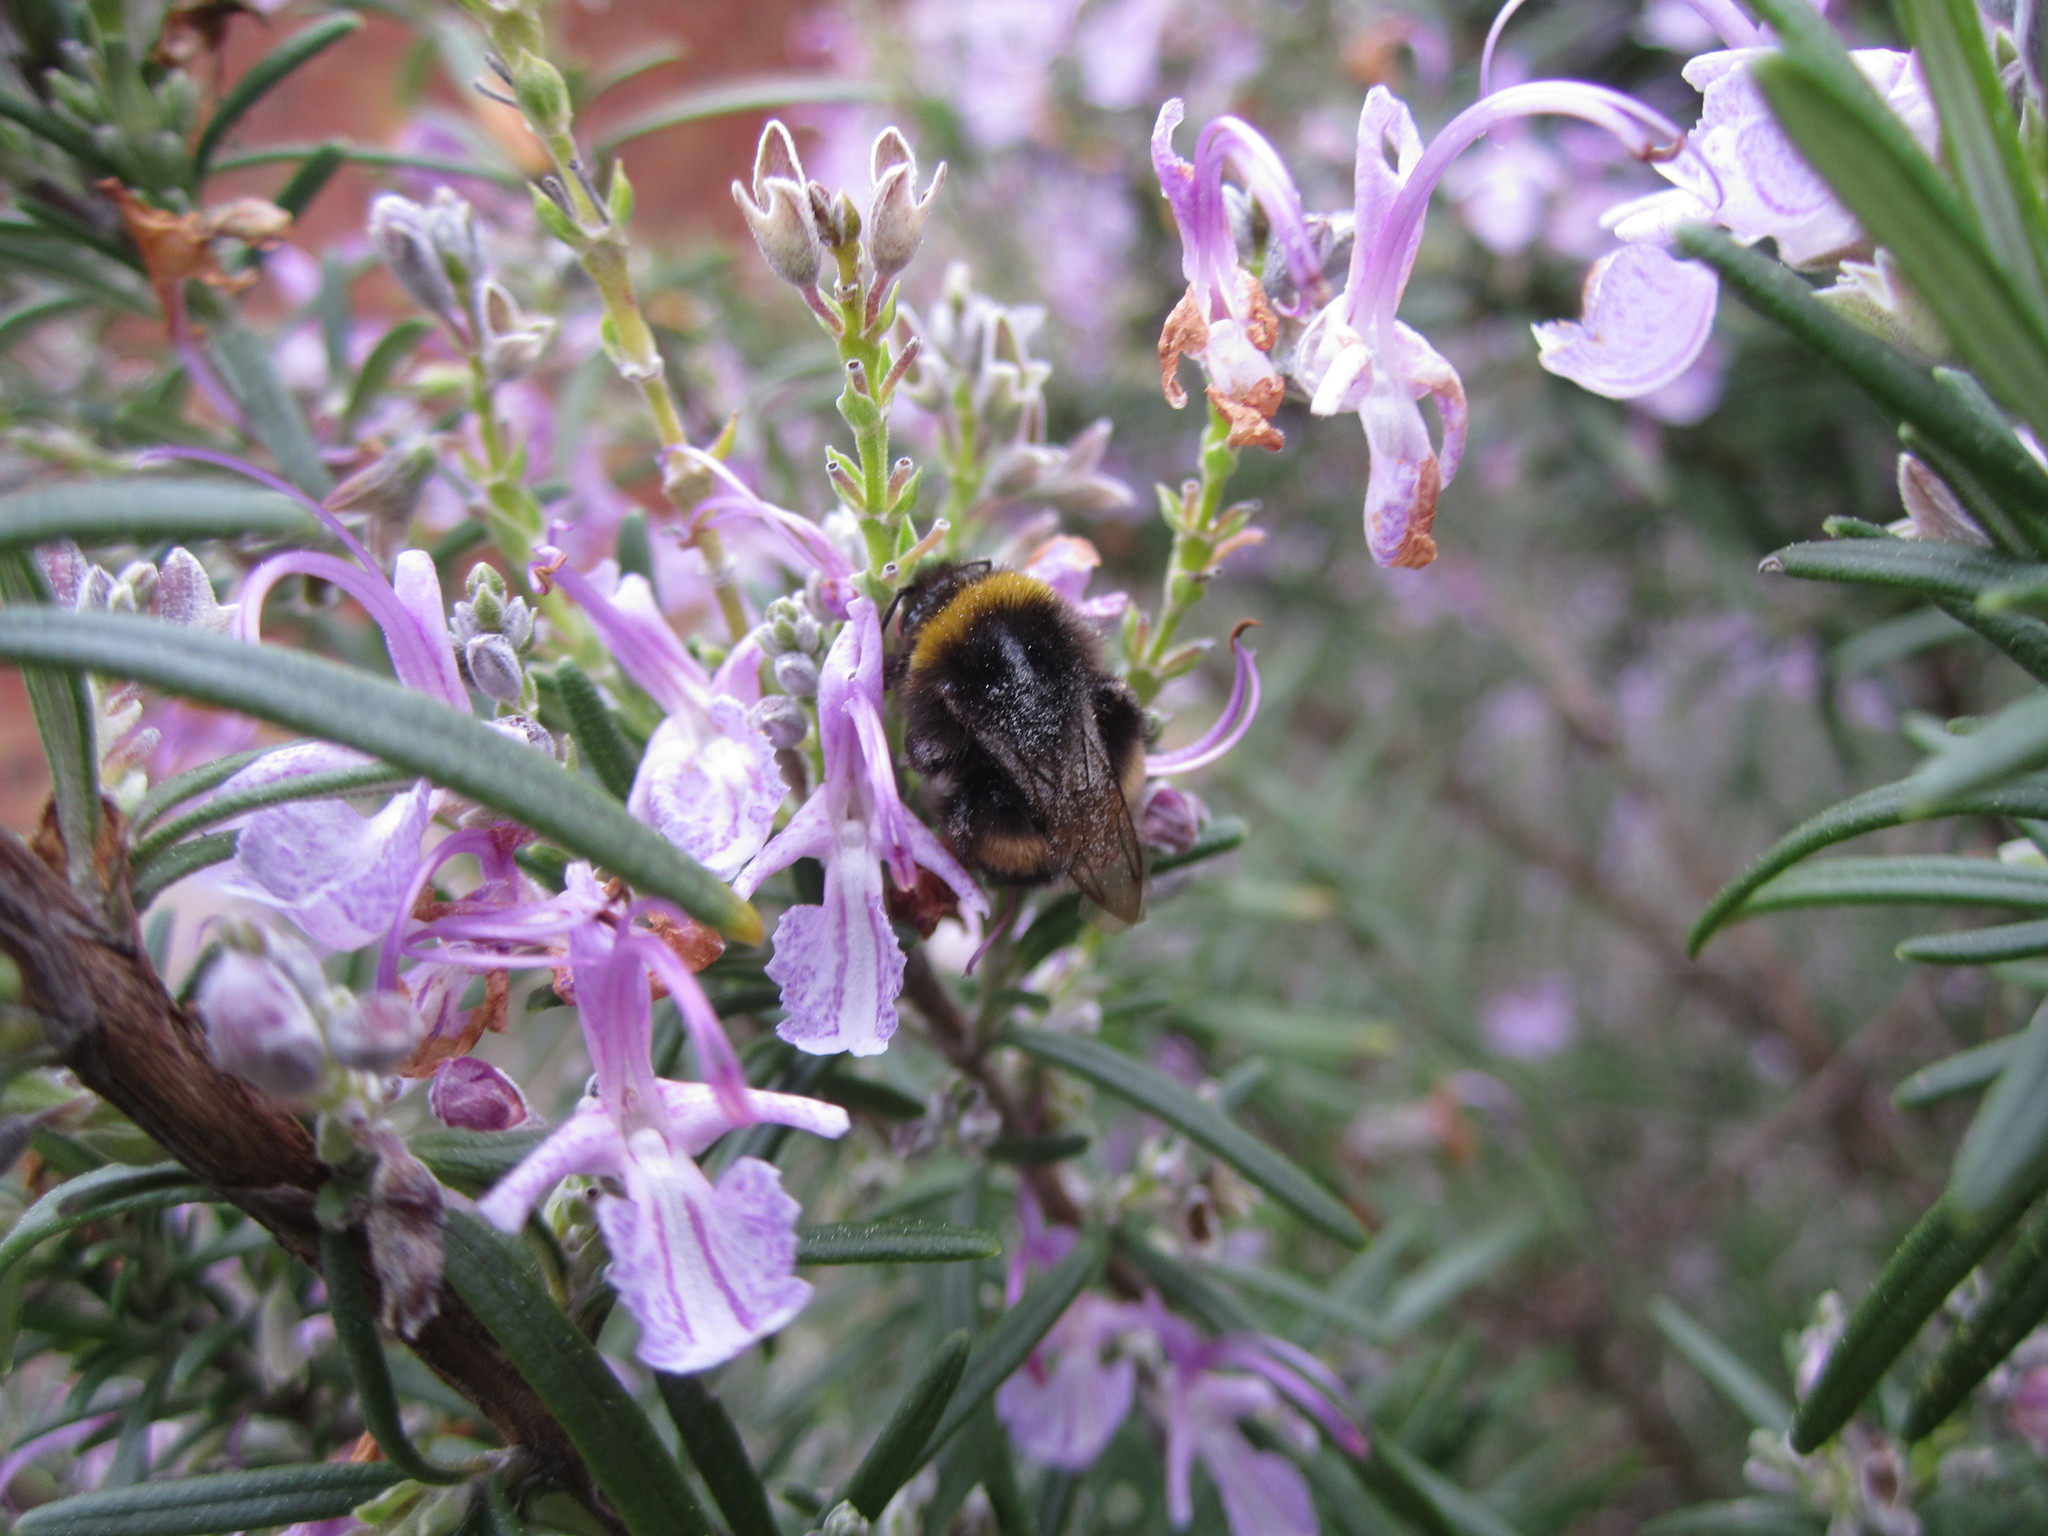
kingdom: Animalia
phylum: Arthropoda
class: Insecta
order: Hymenoptera
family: Apidae
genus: Bombus
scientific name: Bombus terrestris
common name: Buff-tailed bumblebee
